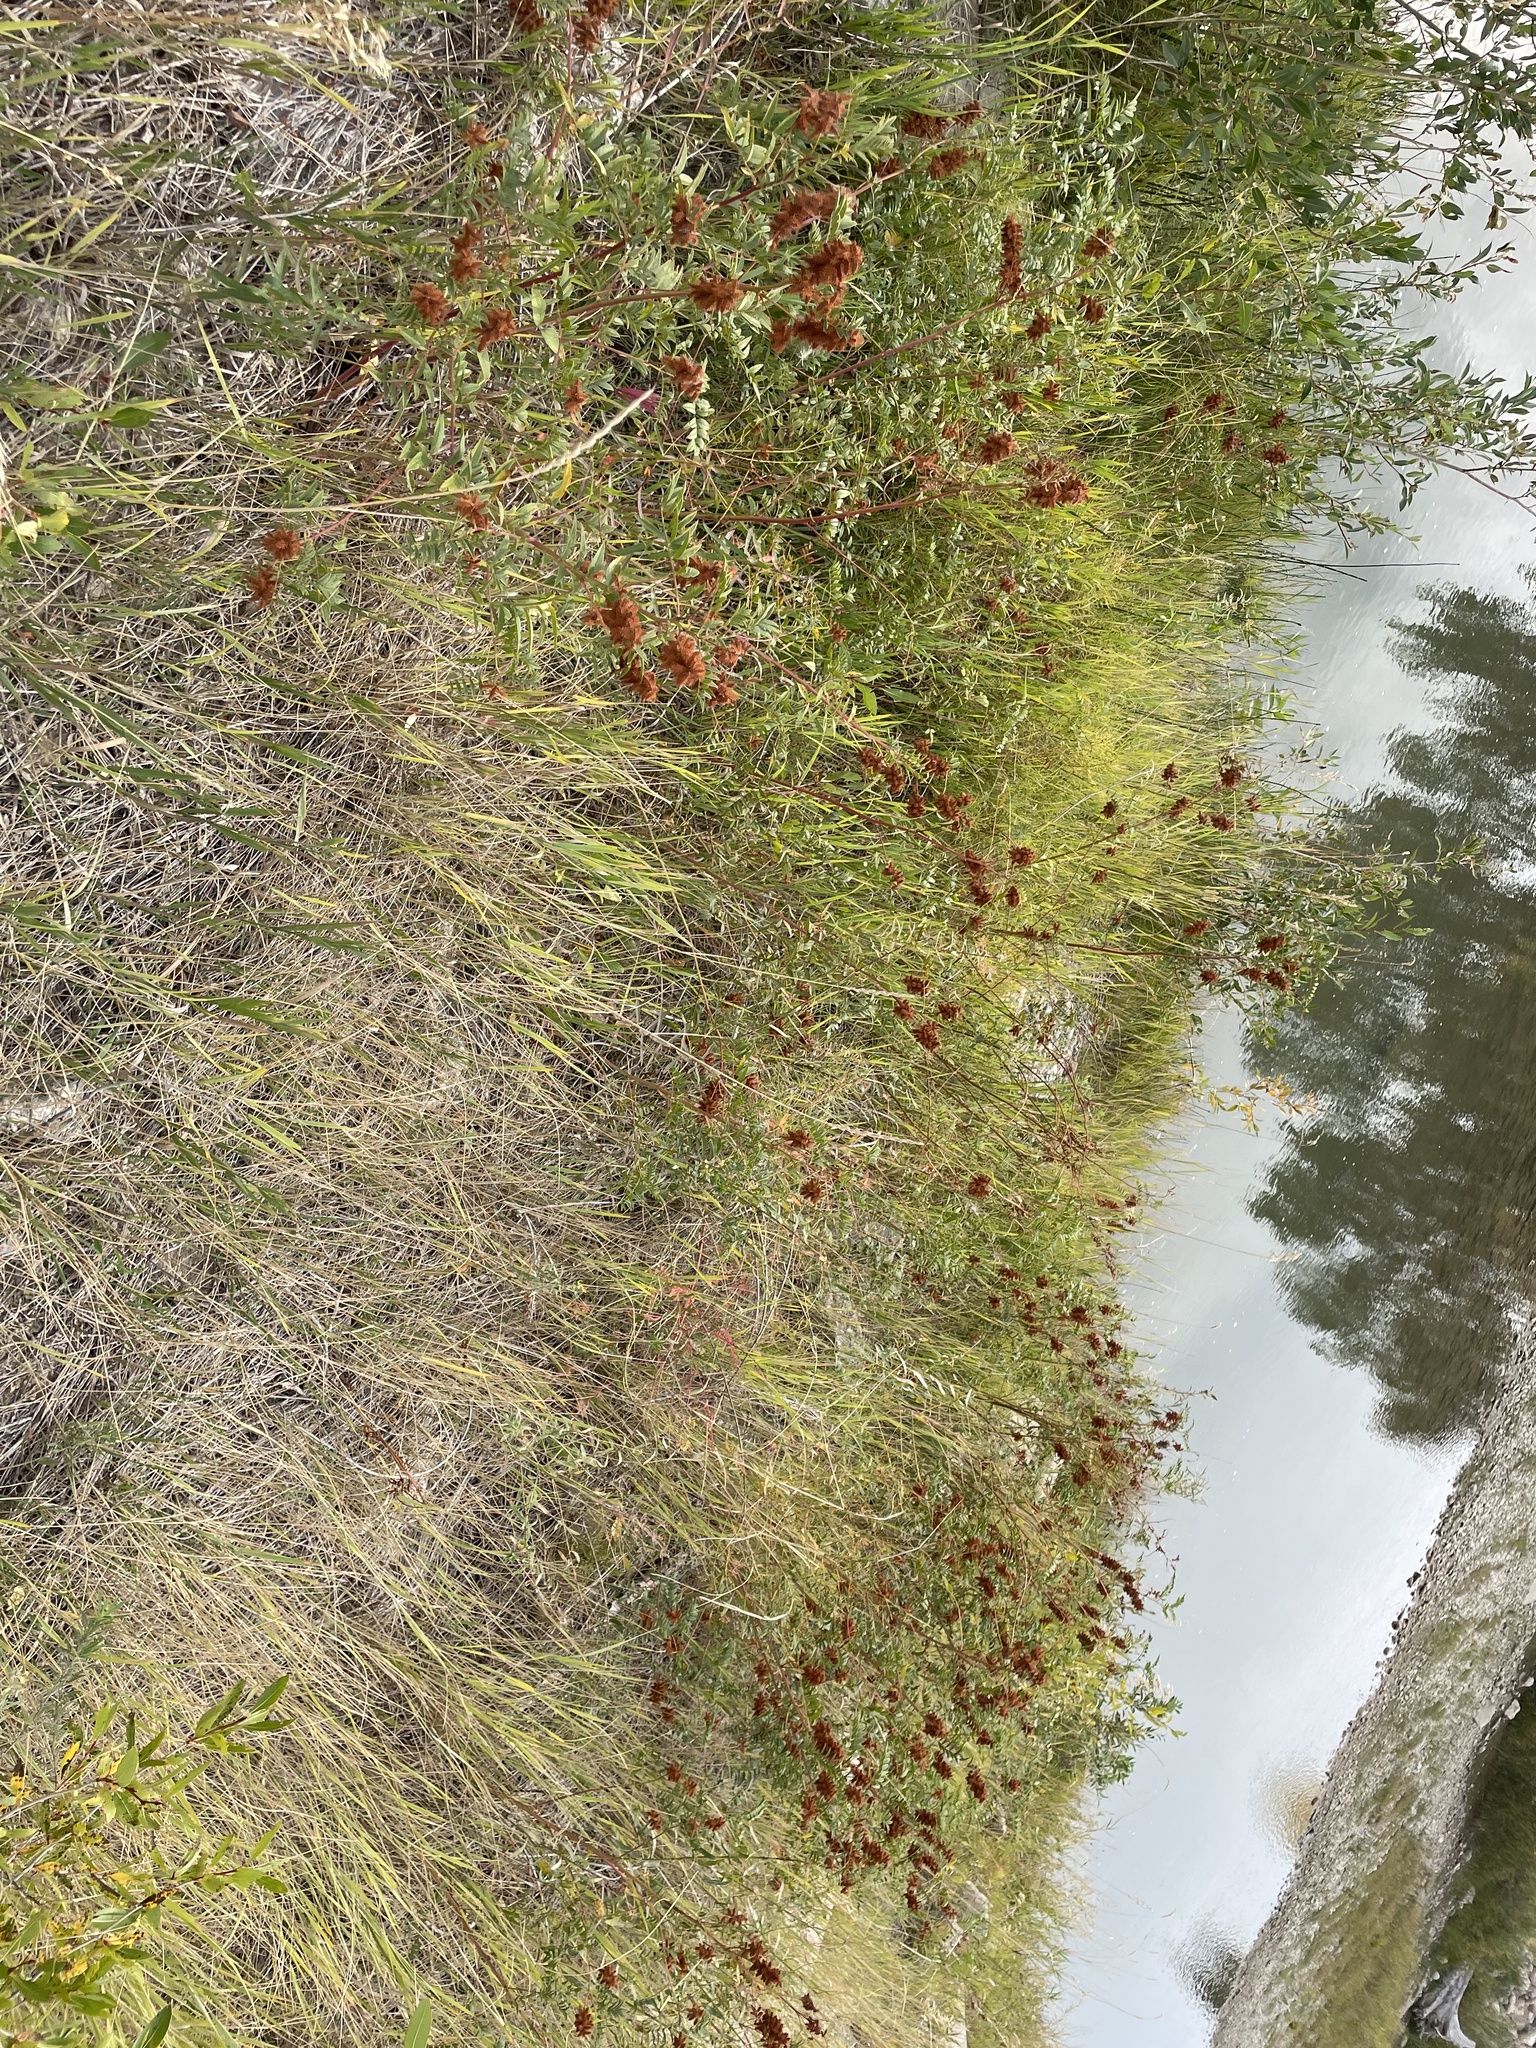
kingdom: Plantae
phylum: Tracheophyta
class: Magnoliopsida
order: Fabales
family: Fabaceae
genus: Glycyrrhiza
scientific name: Glycyrrhiza lepidota
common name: American liquorice
